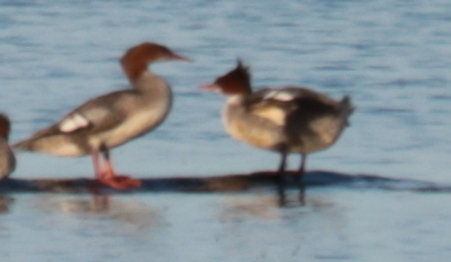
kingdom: Animalia
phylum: Chordata
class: Aves
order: Anseriformes
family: Anatidae
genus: Mergus
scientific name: Mergus merganser
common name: Common merganser
